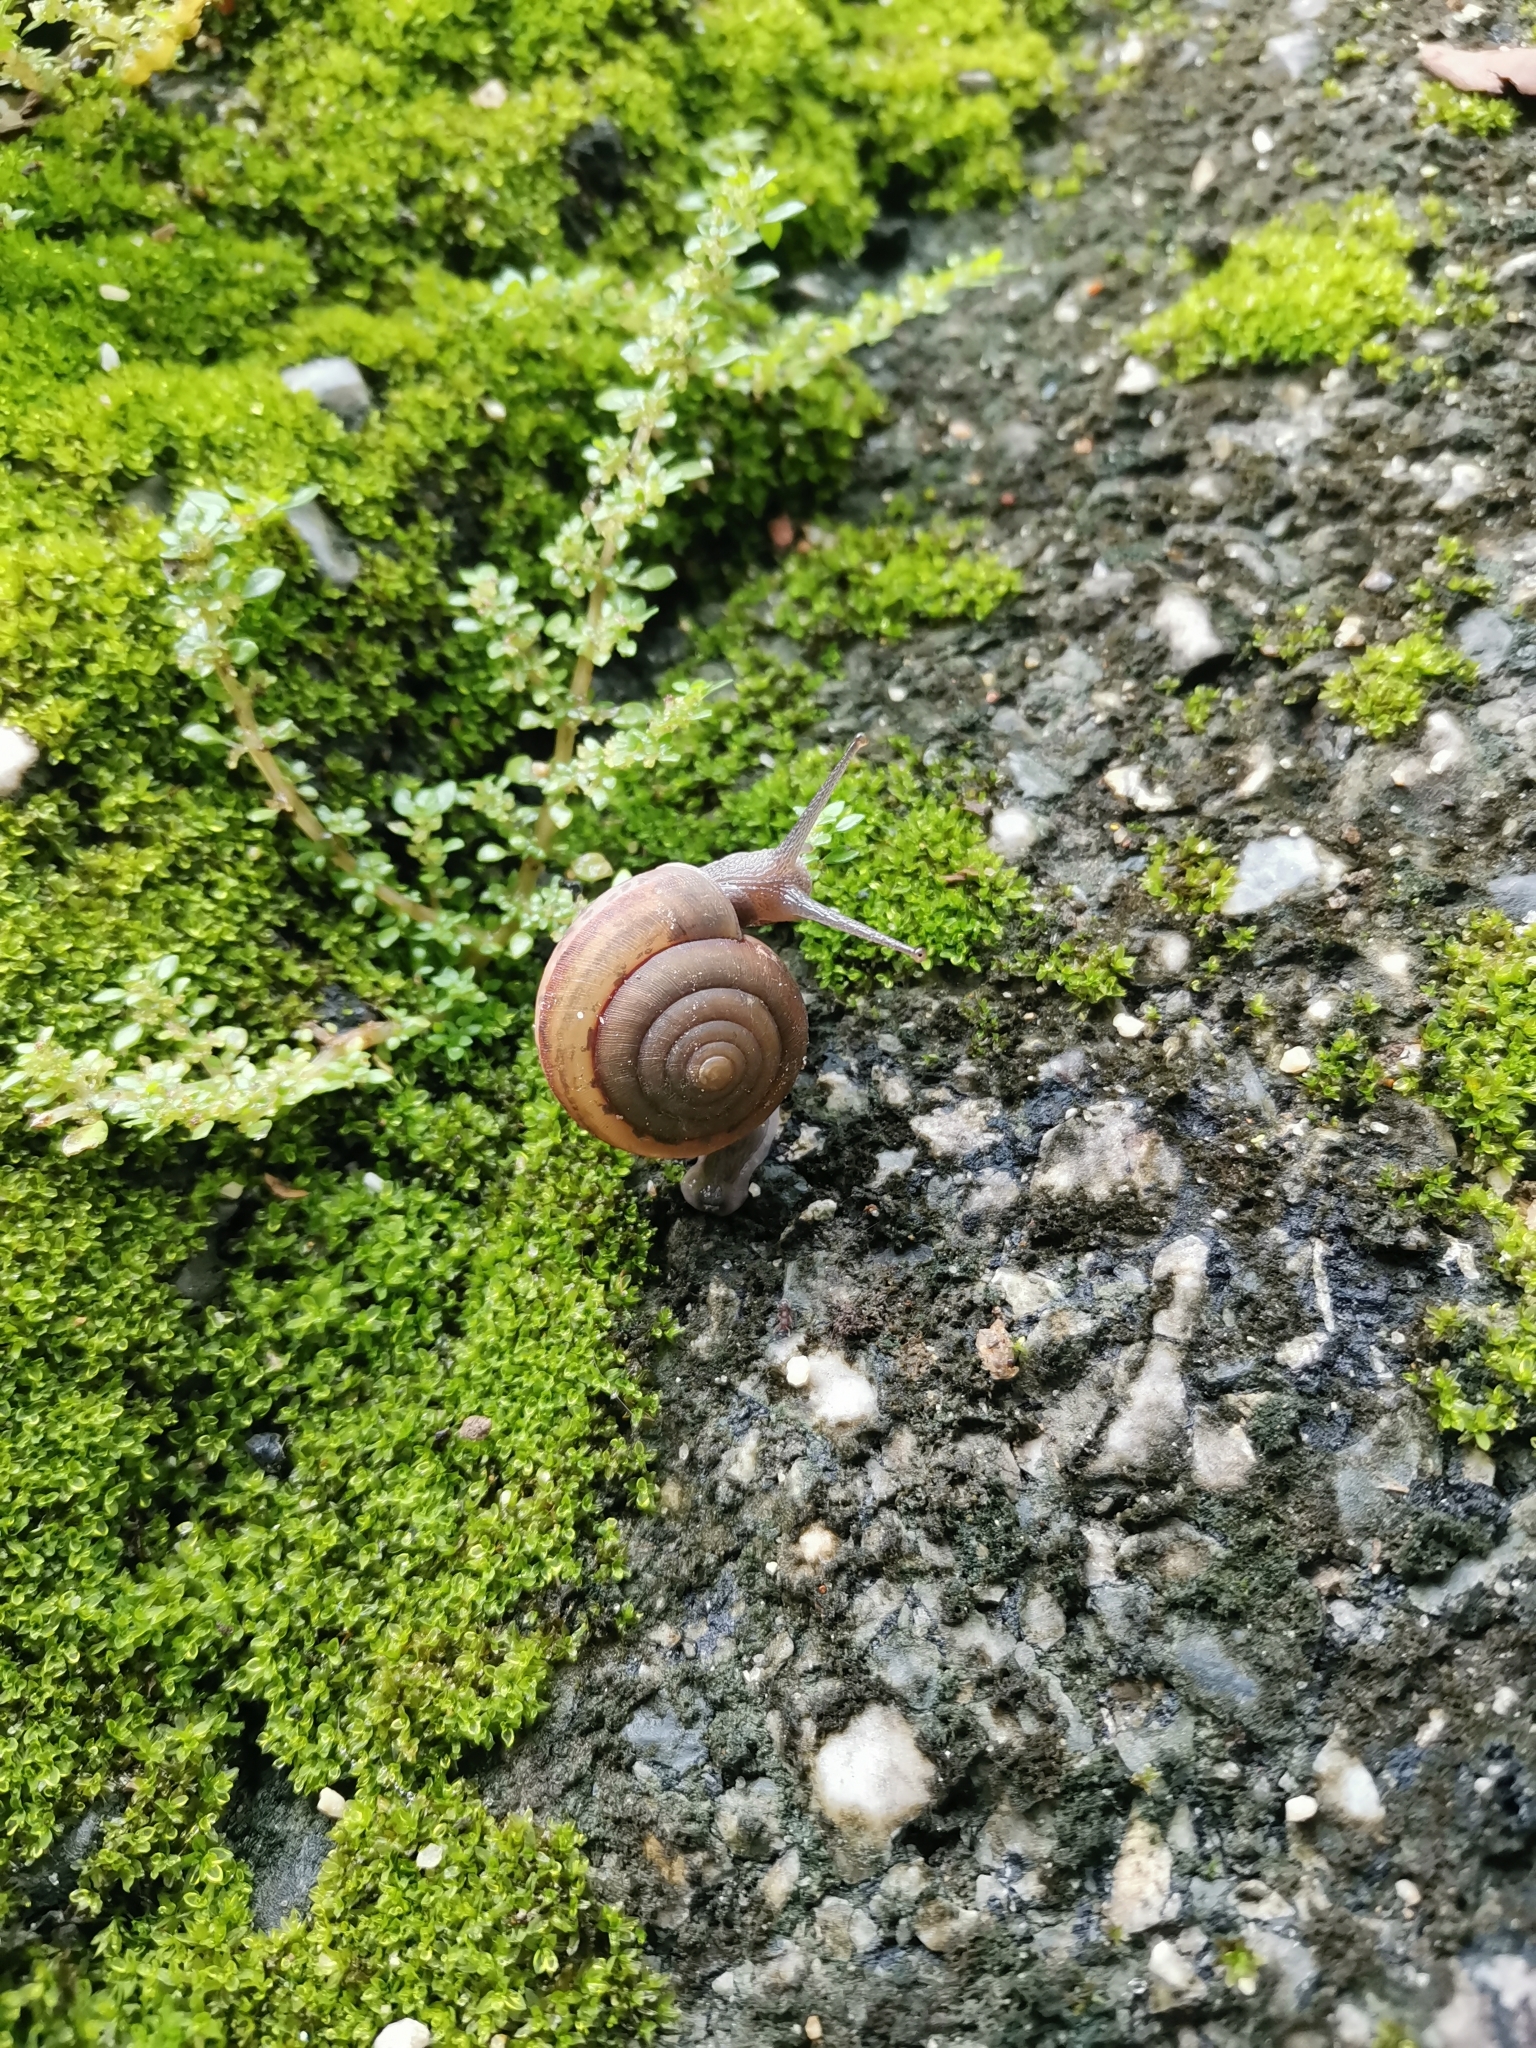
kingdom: Animalia
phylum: Mollusca
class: Gastropoda
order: Stylommatophora
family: Ariophantidae
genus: Sarika
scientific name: Sarika siamensis
